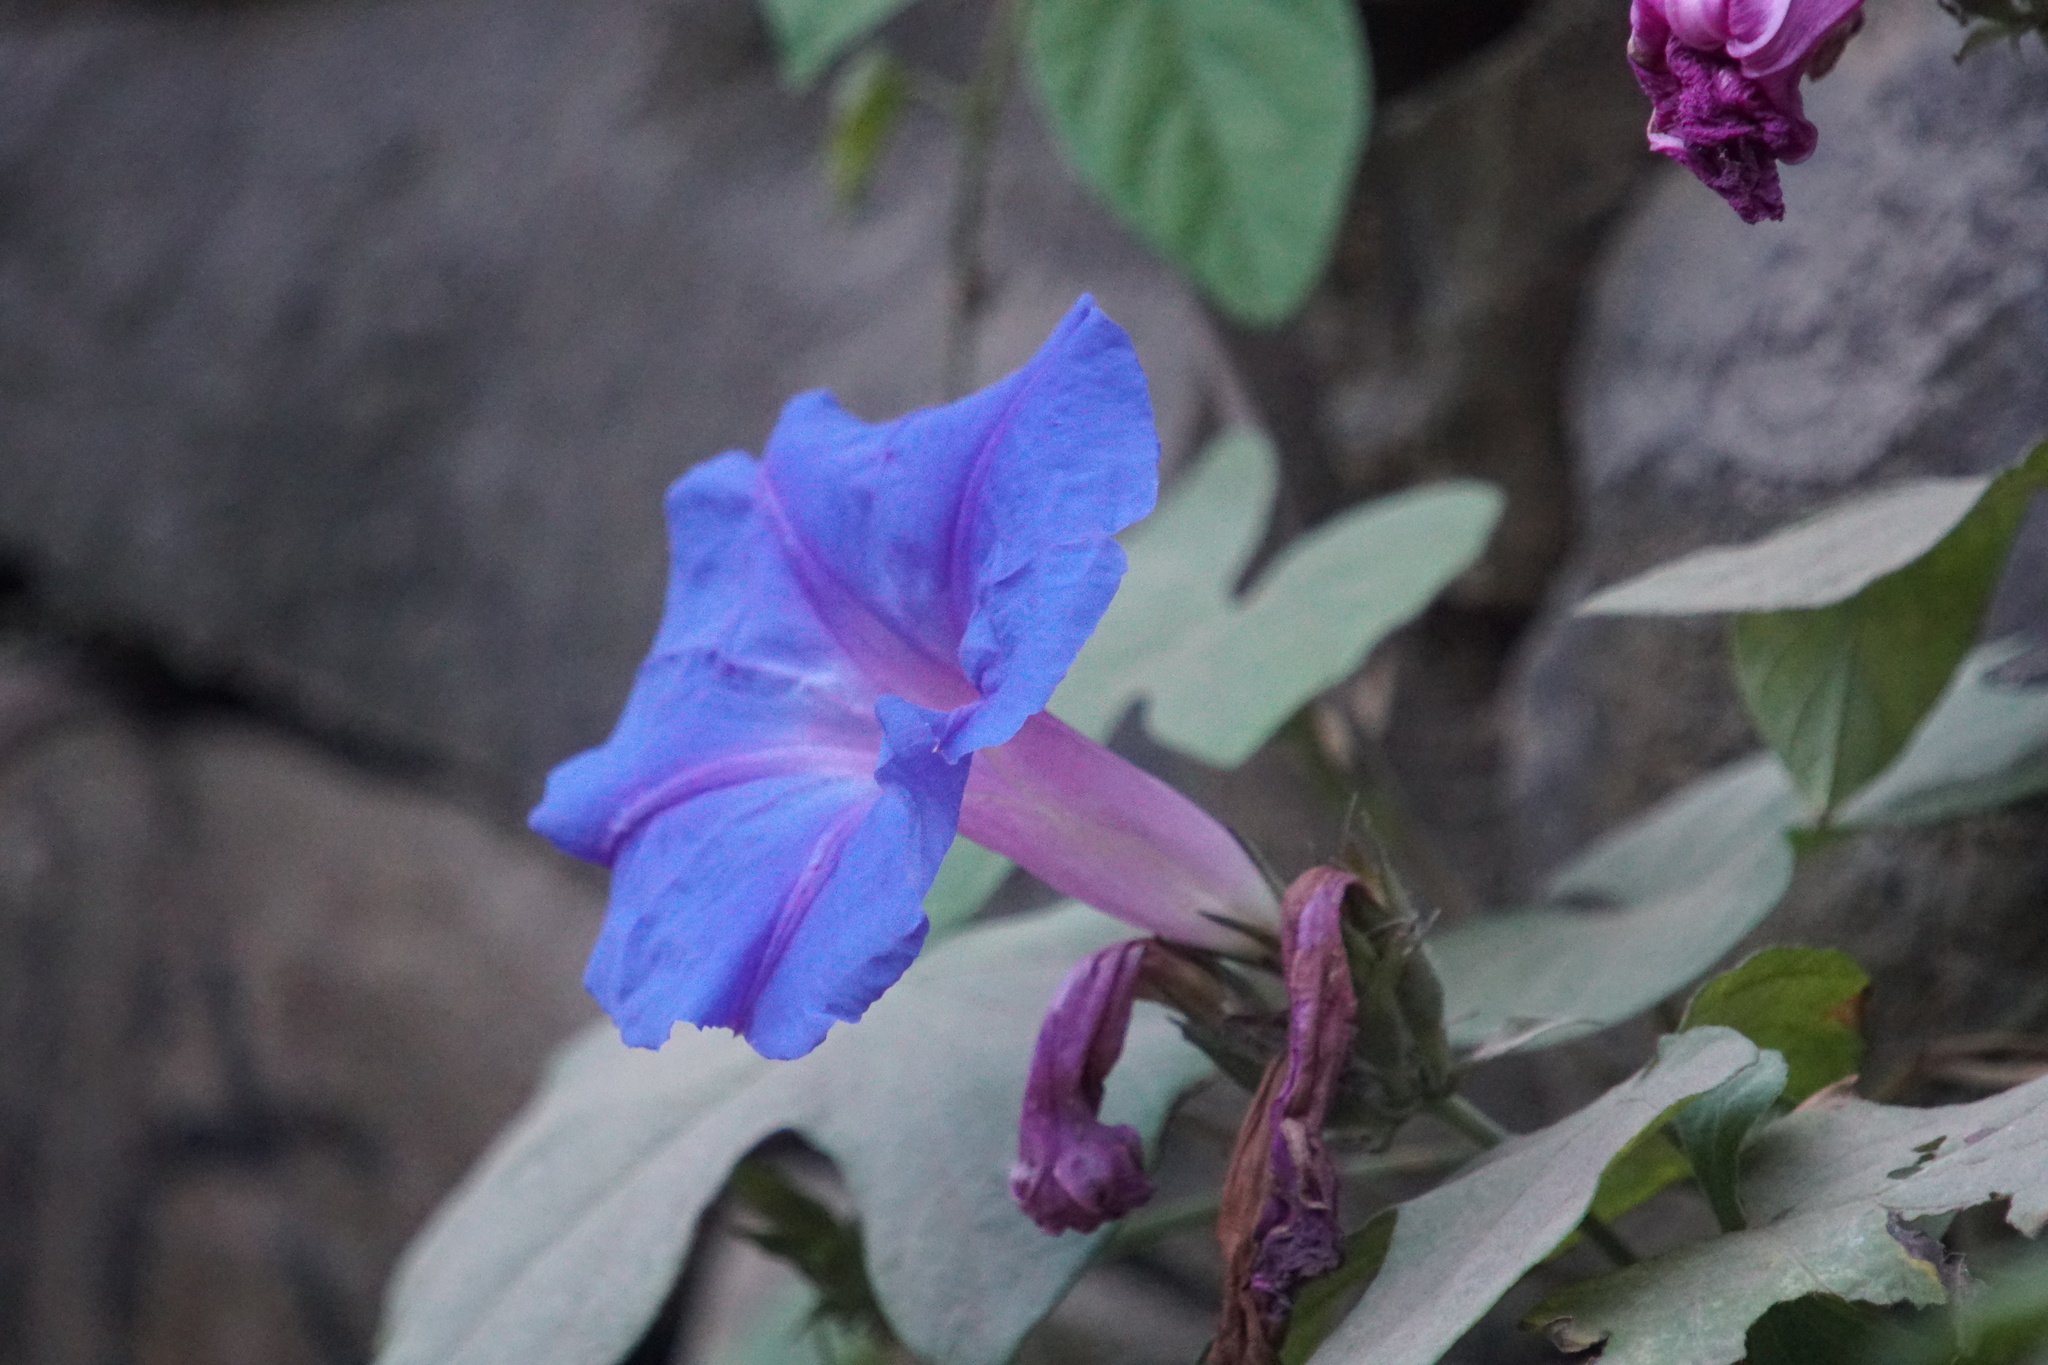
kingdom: Plantae
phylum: Tracheophyta
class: Magnoliopsida
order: Solanales
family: Convolvulaceae
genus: Ipomoea
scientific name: Ipomoea indica
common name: Blue dawnflower
